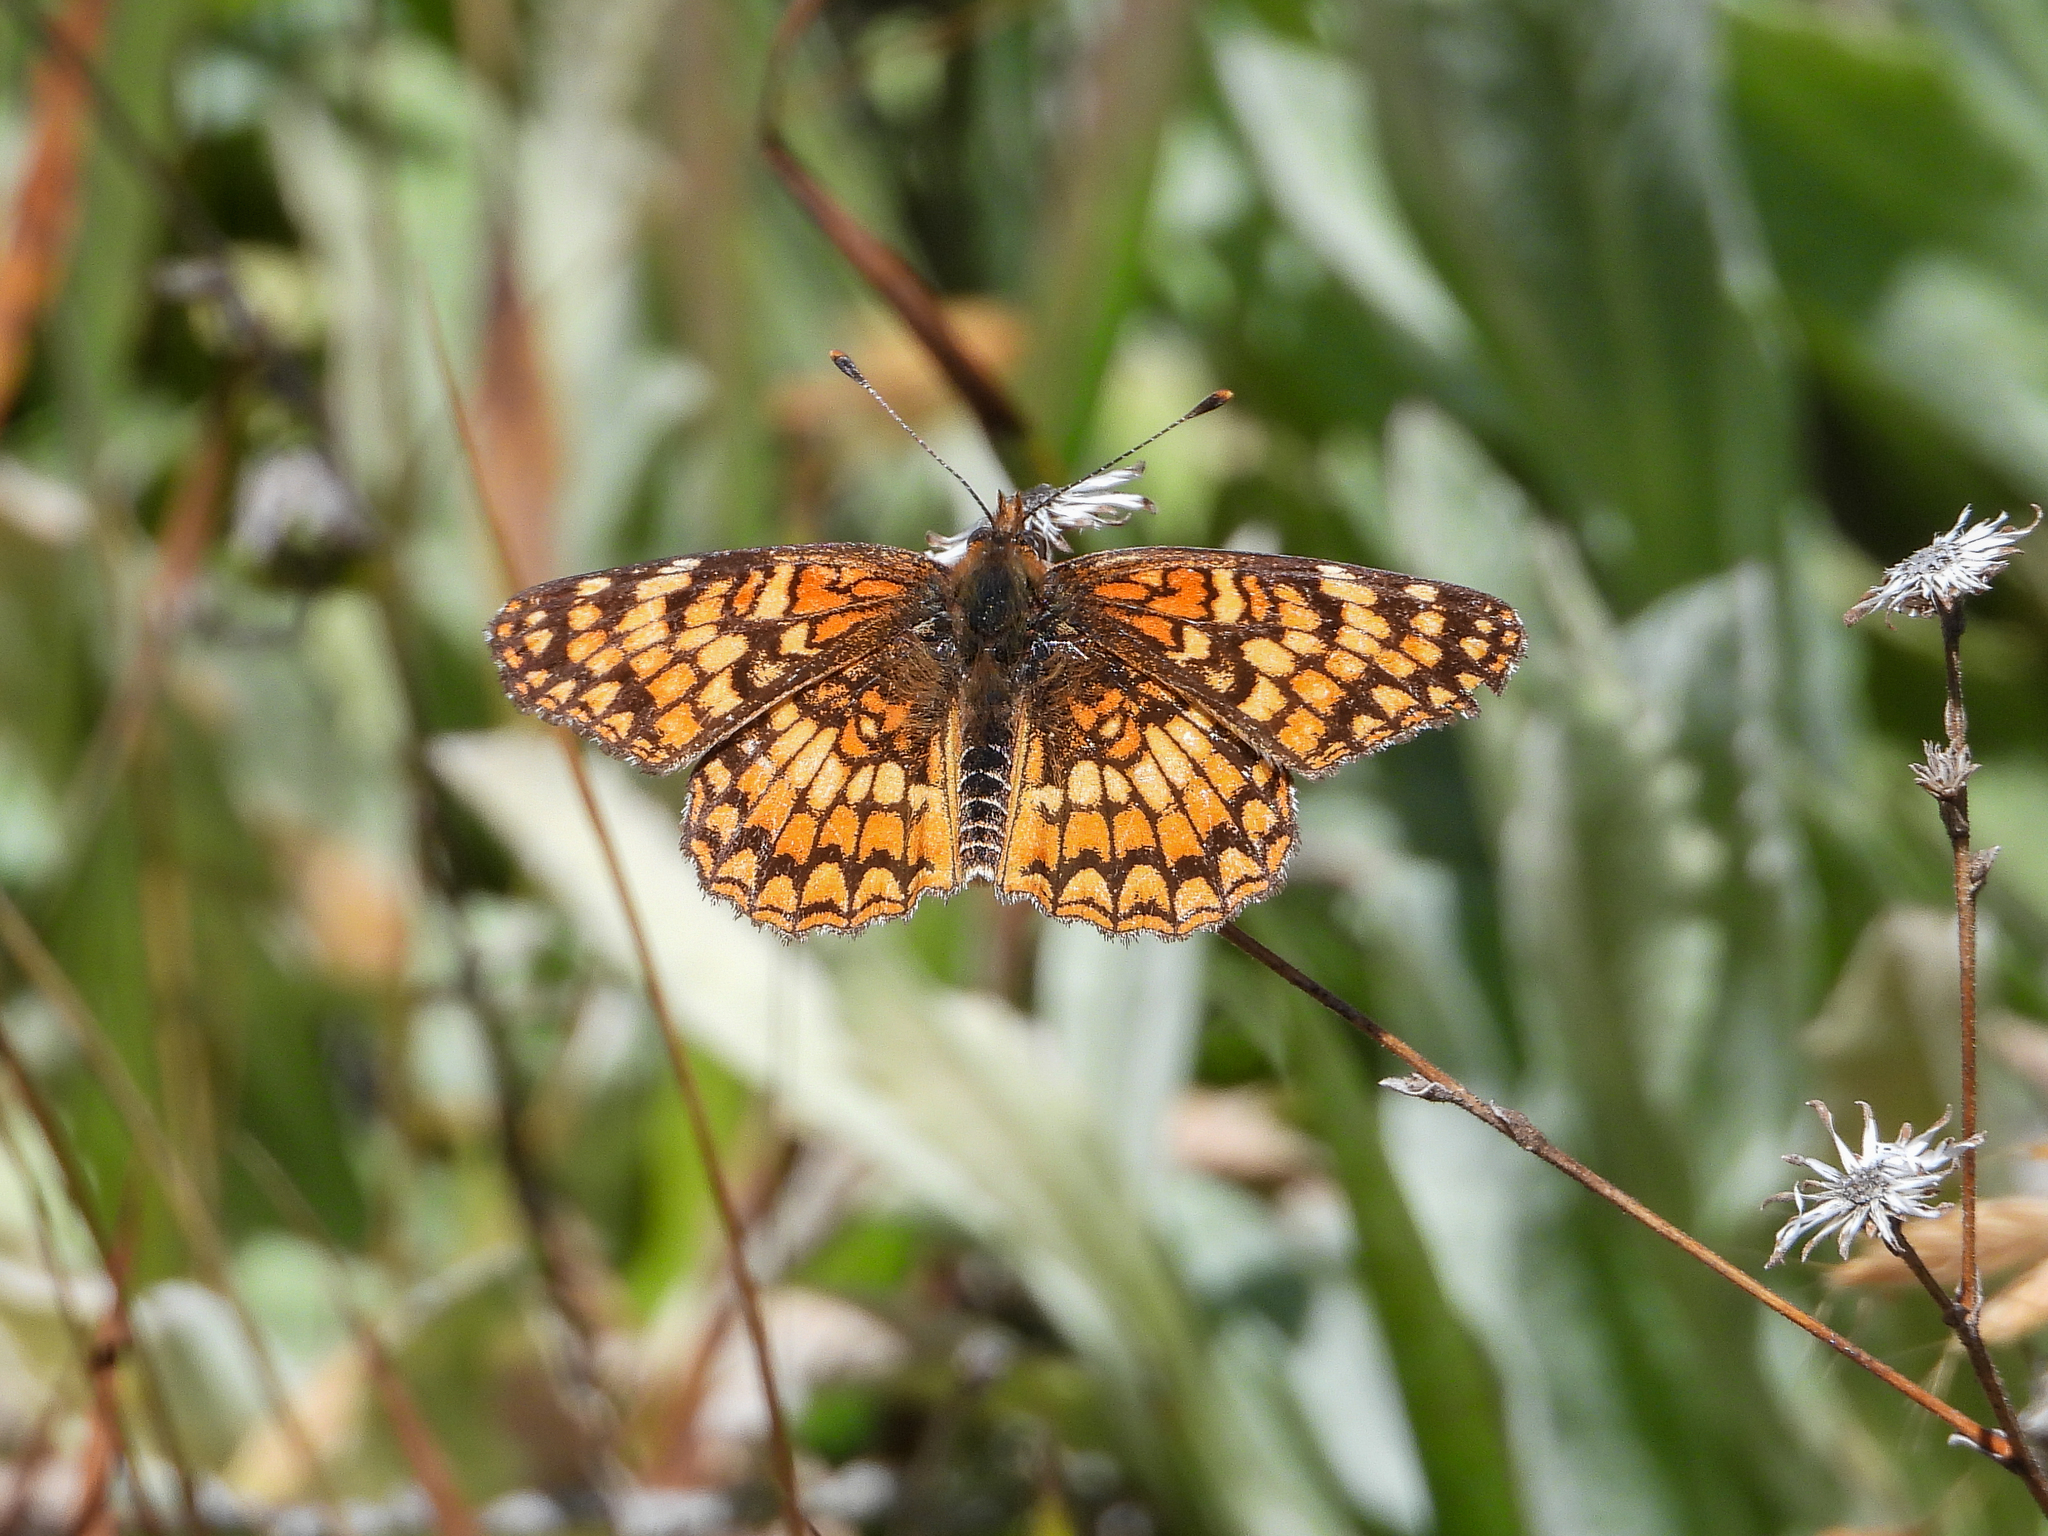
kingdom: Animalia
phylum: Arthropoda
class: Insecta
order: Lepidoptera
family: Nymphalidae
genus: Chlosyne
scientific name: Chlosyne gabbii
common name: Gabb's checkerspot
